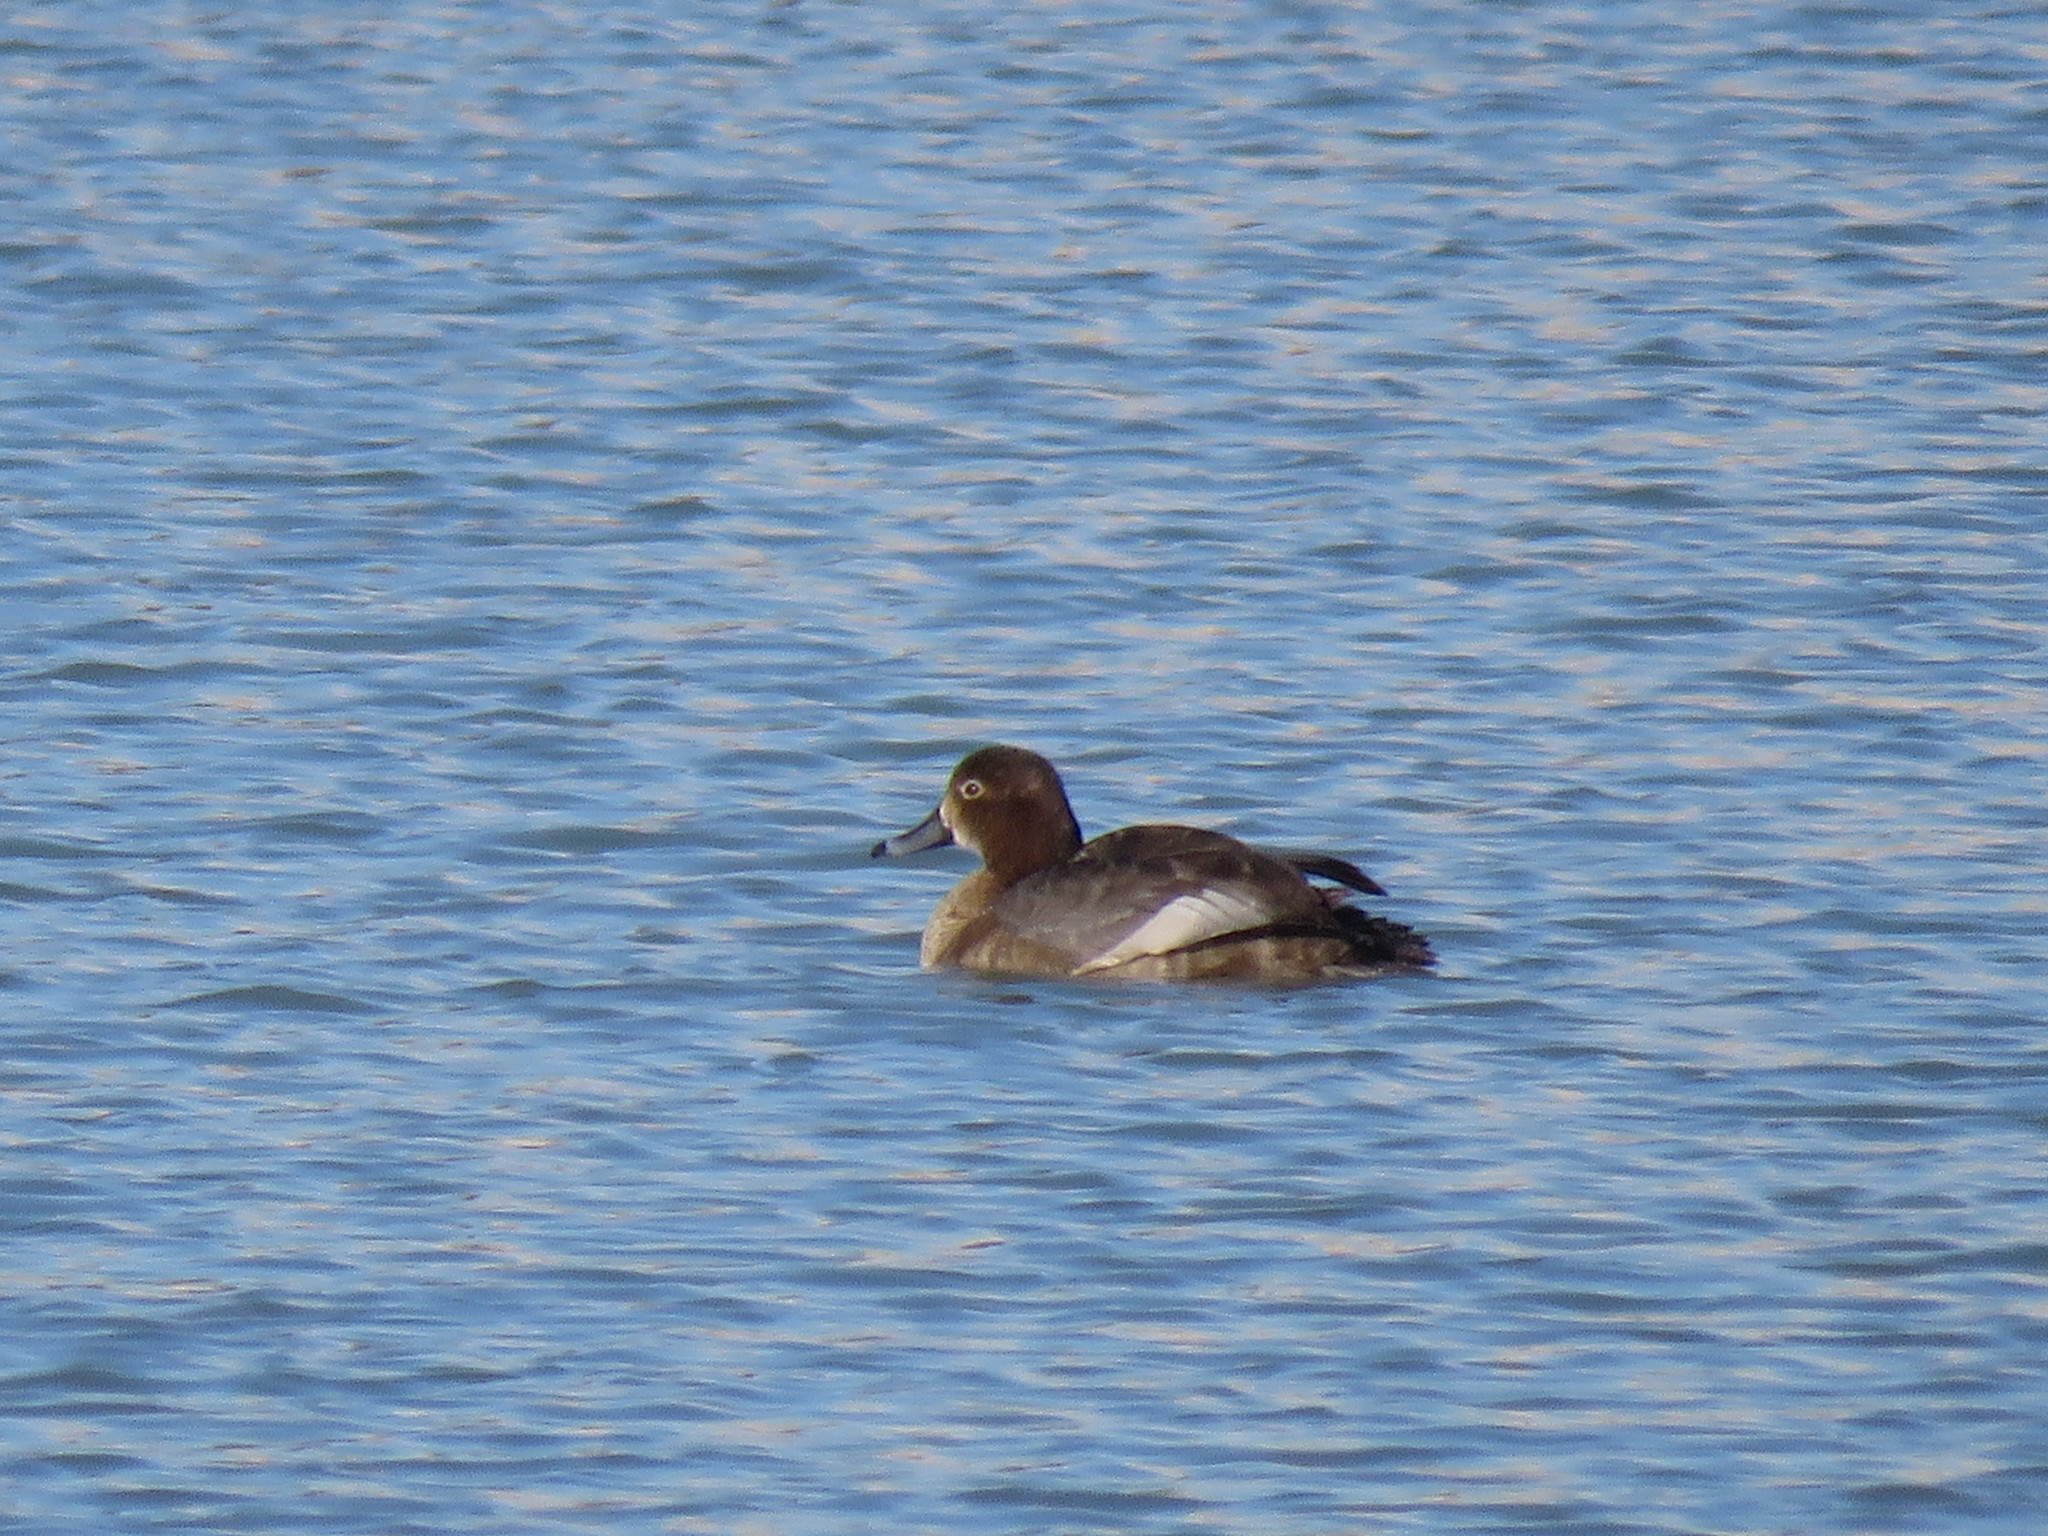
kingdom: Animalia
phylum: Chordata
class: Aves
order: Anseriformes
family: Anatidae
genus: Aythya
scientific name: Aythya americana
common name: Redhead
